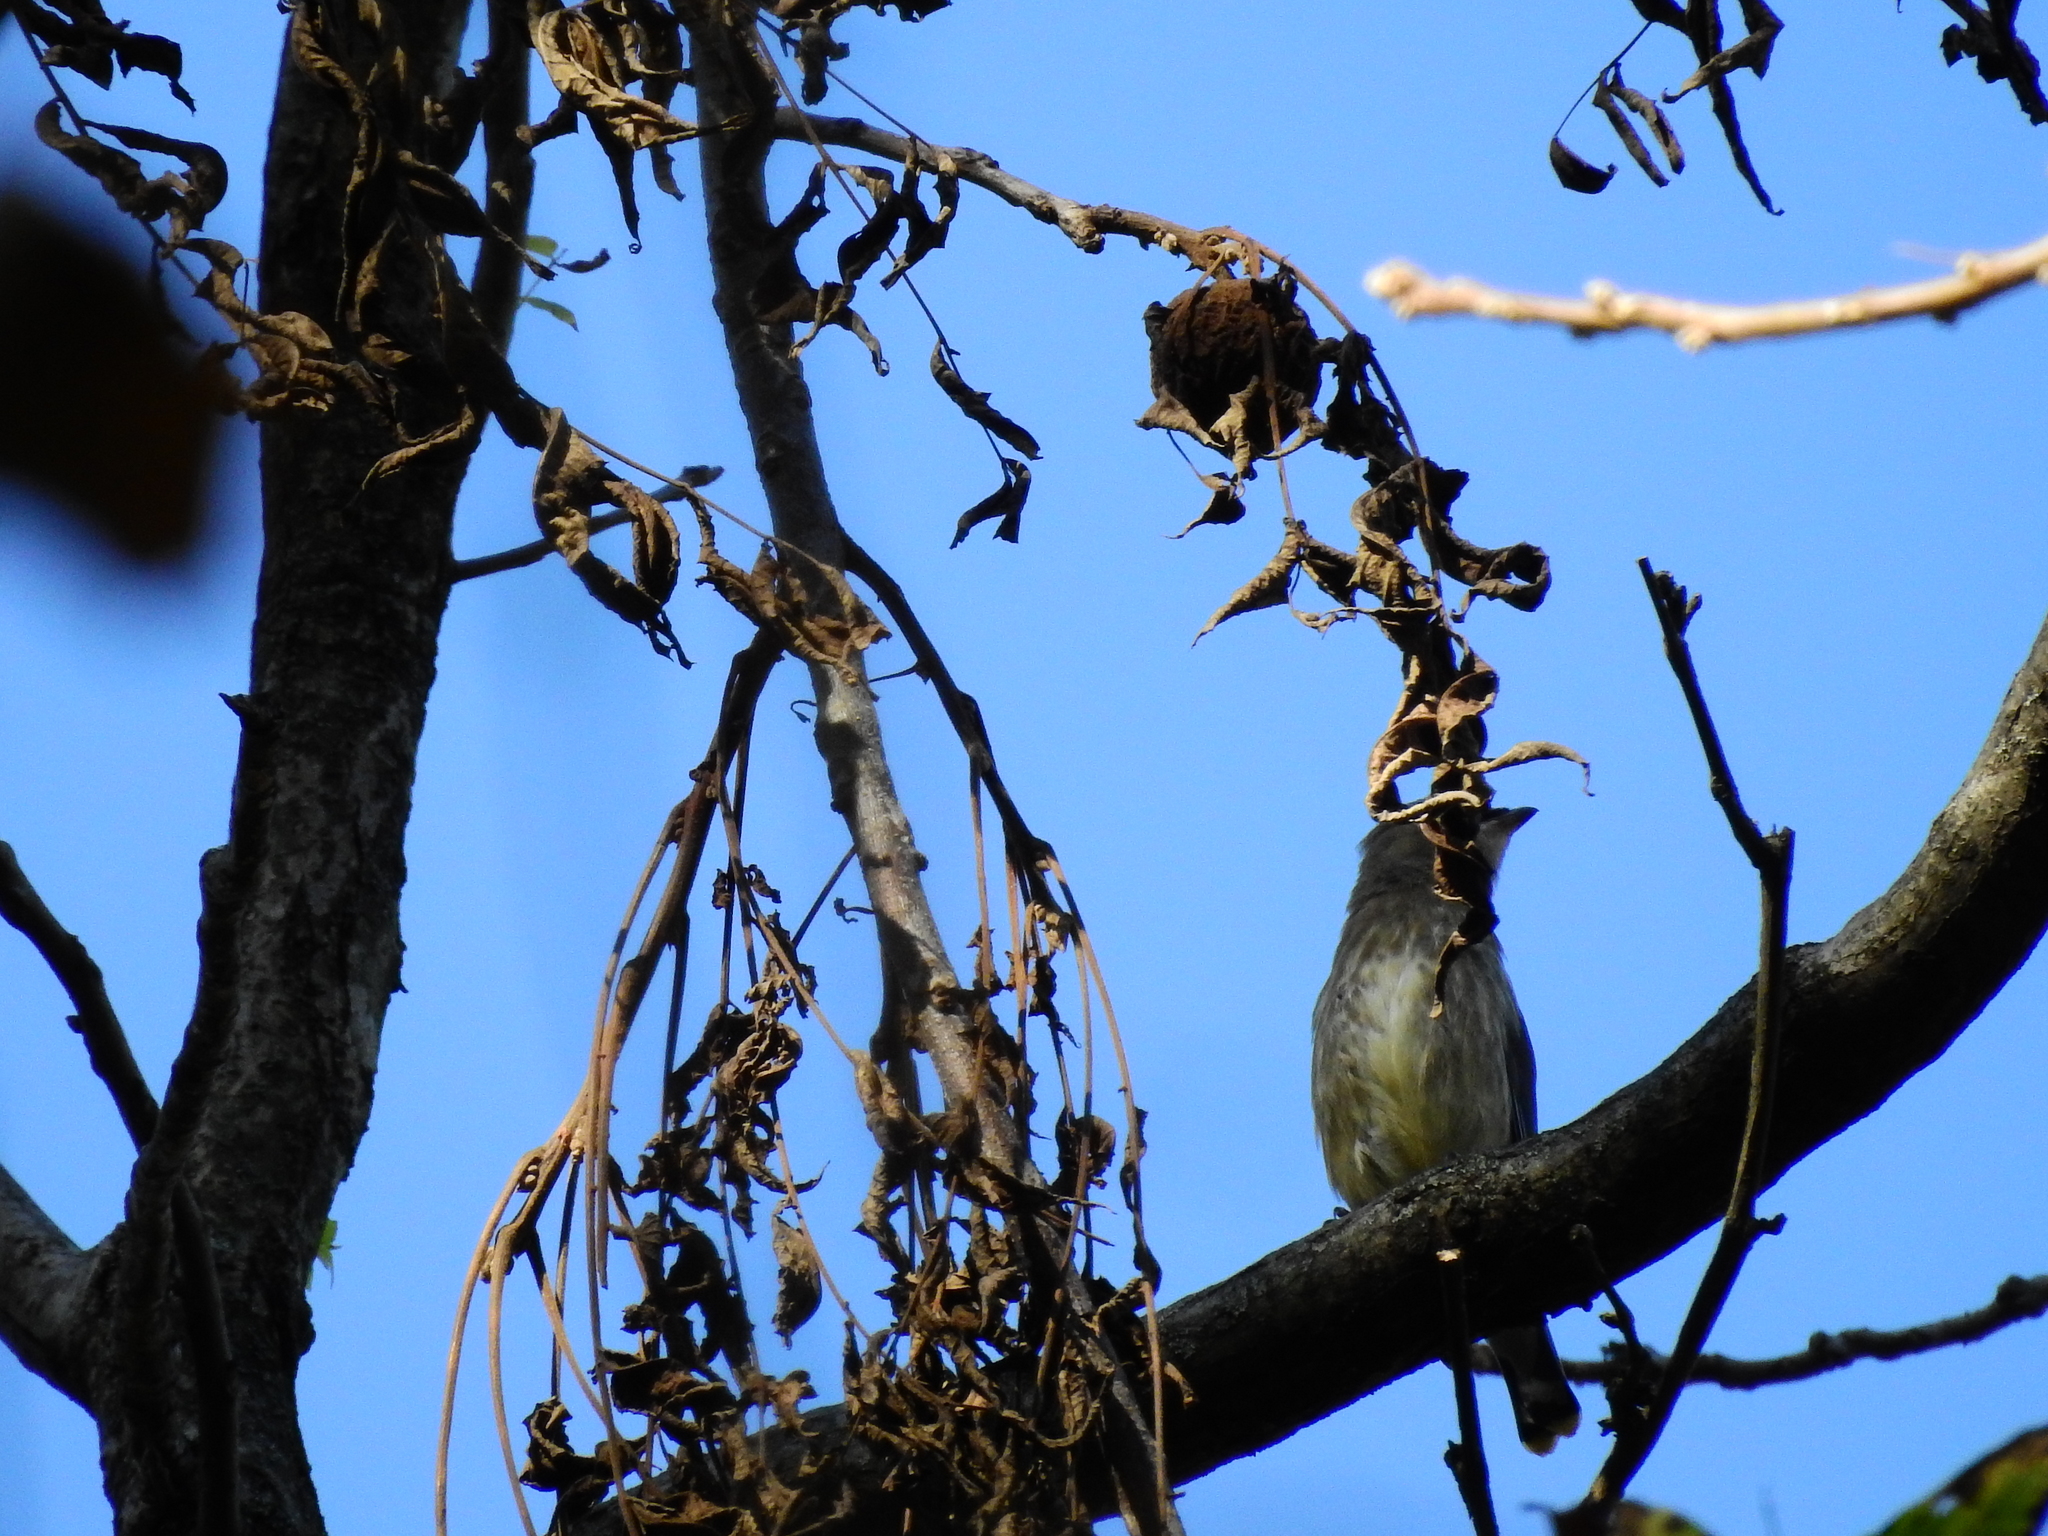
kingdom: Animalia
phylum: Chordata
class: Aves
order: Passeriformes
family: Bombycillidae
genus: Bombycilla
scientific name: Bombycilla cedrorum
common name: Cedar waxwing
